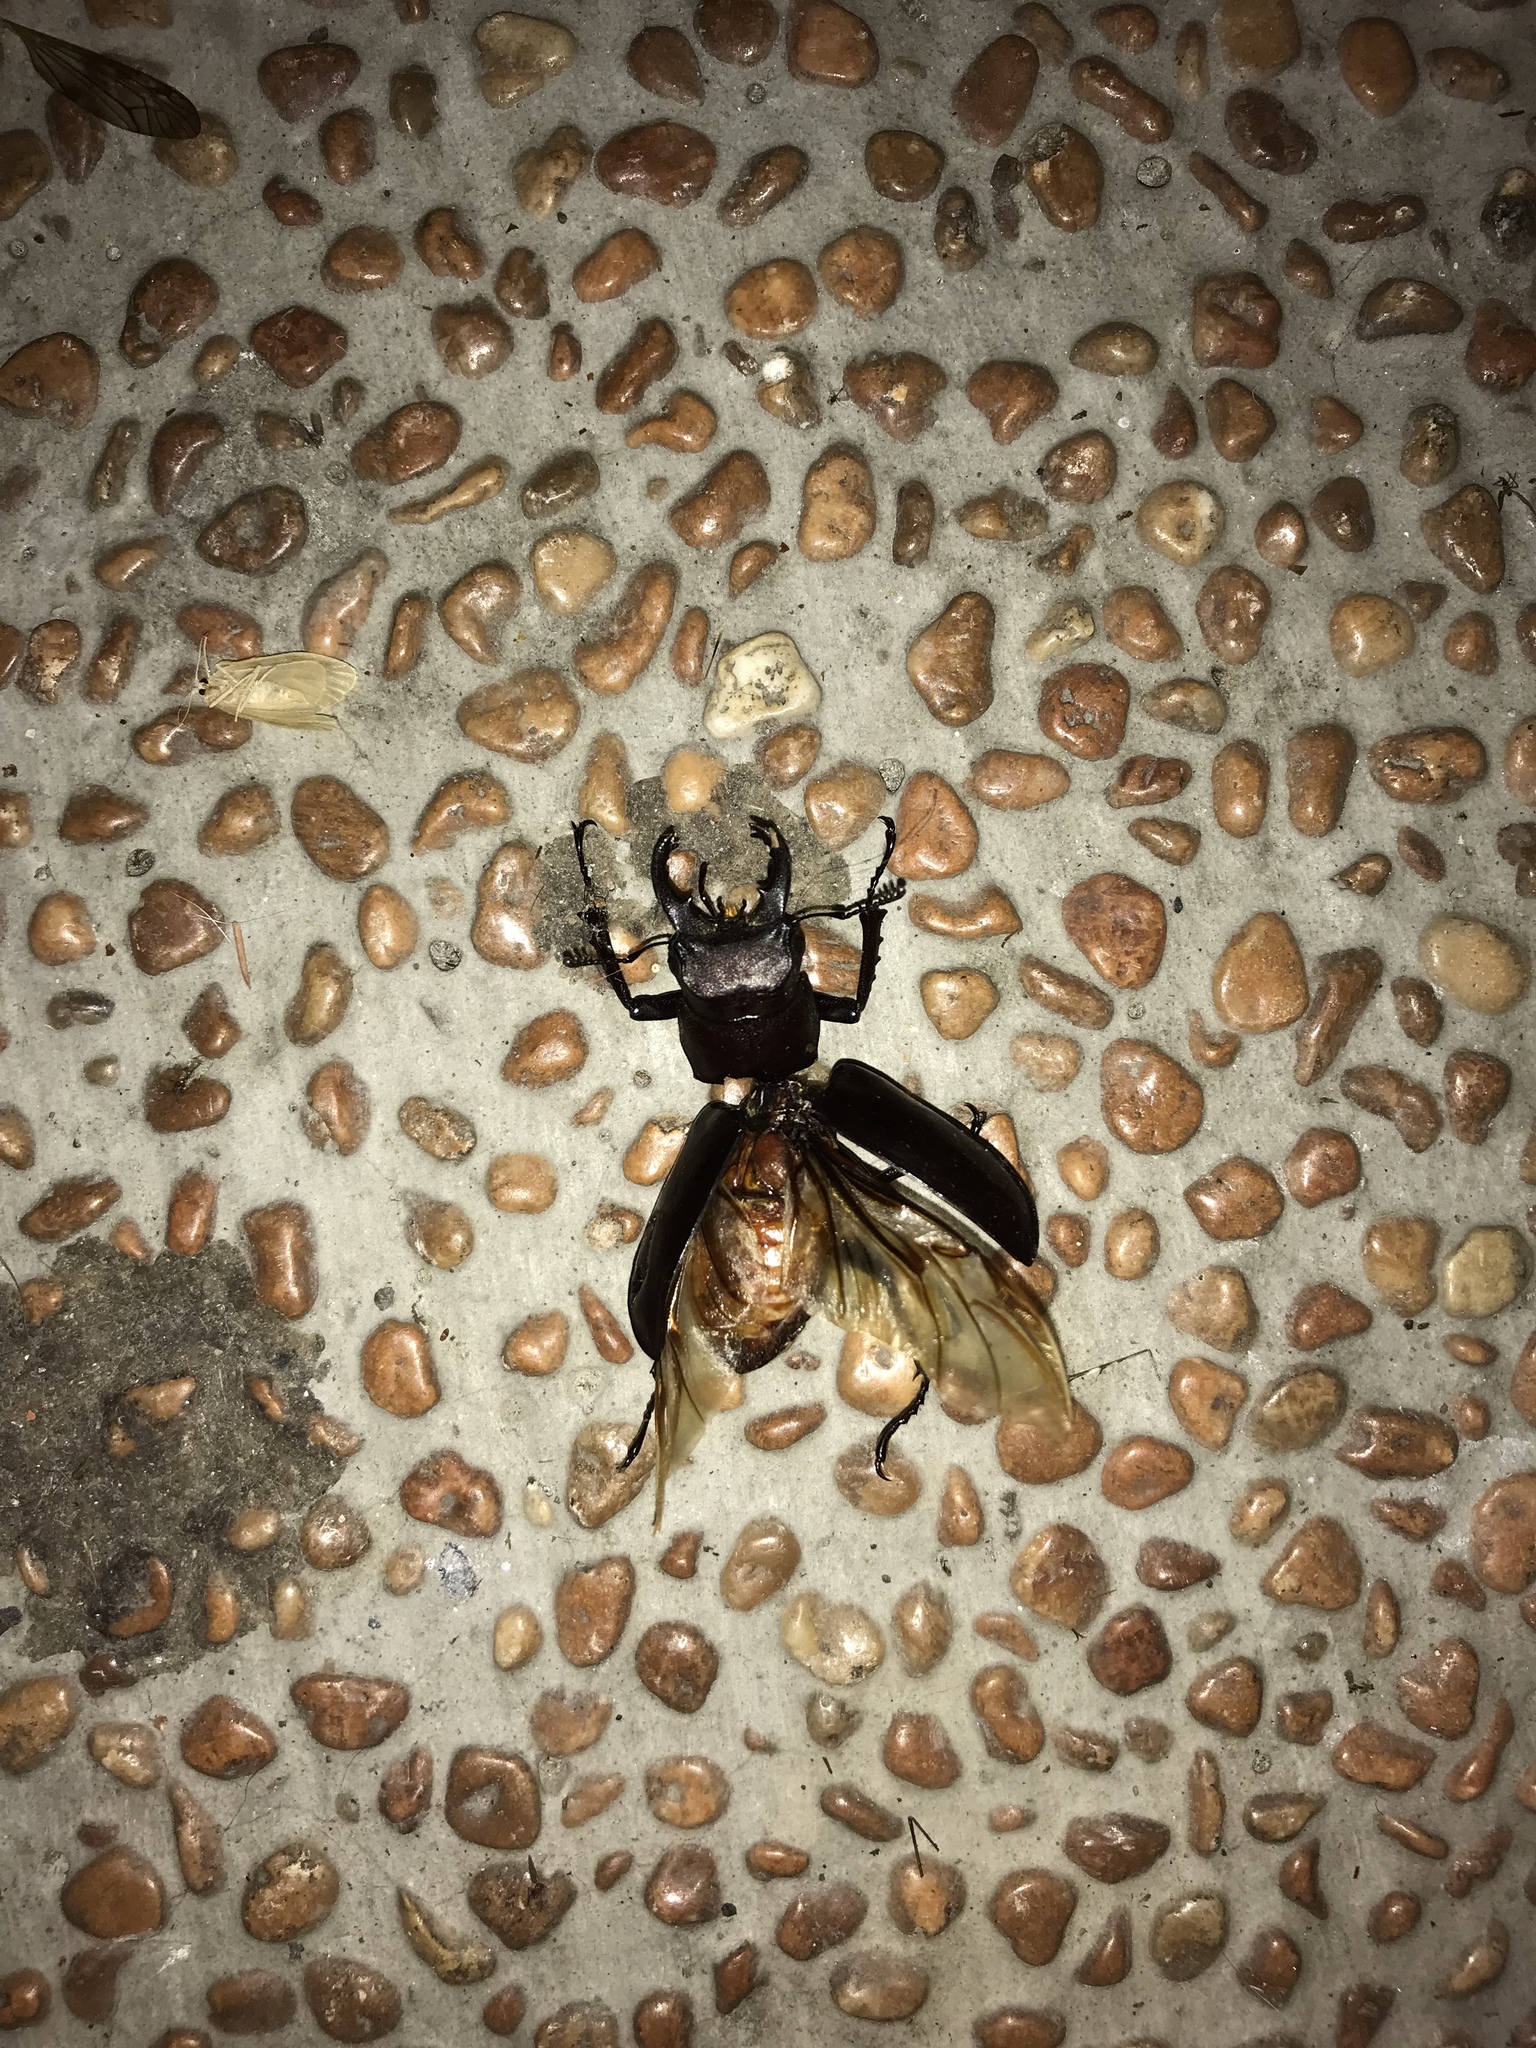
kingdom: Animalia
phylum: Arthropoda
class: Insecta
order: Coleoptera
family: Lucanidae
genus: Lucanus
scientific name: Lucanus kanoi
